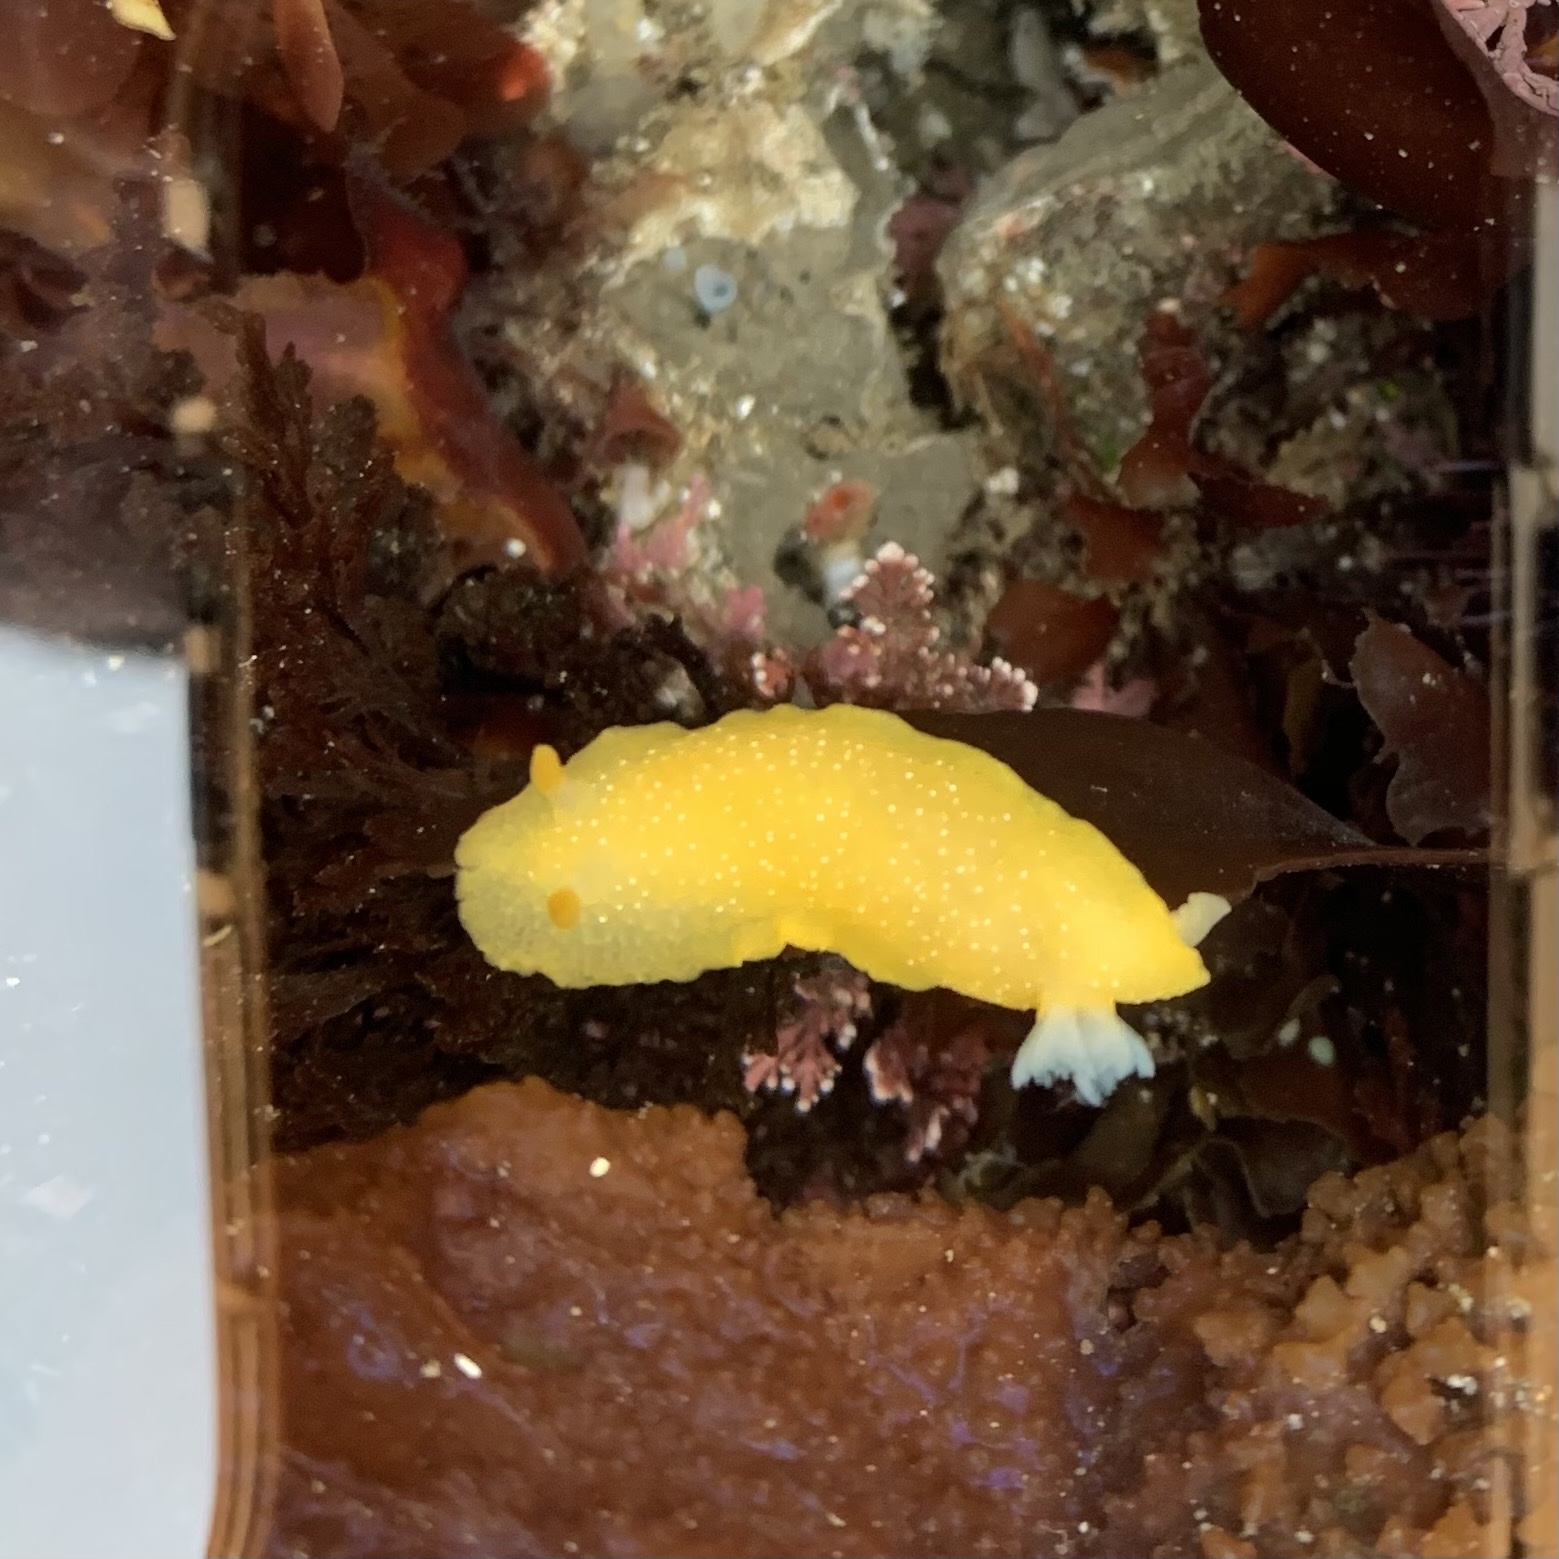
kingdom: Animalia
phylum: Mollusca
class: Gastropoda
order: Nudibranchia
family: Dendrodorididae
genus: Doriopsilla
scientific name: Doriopsilla fulva
